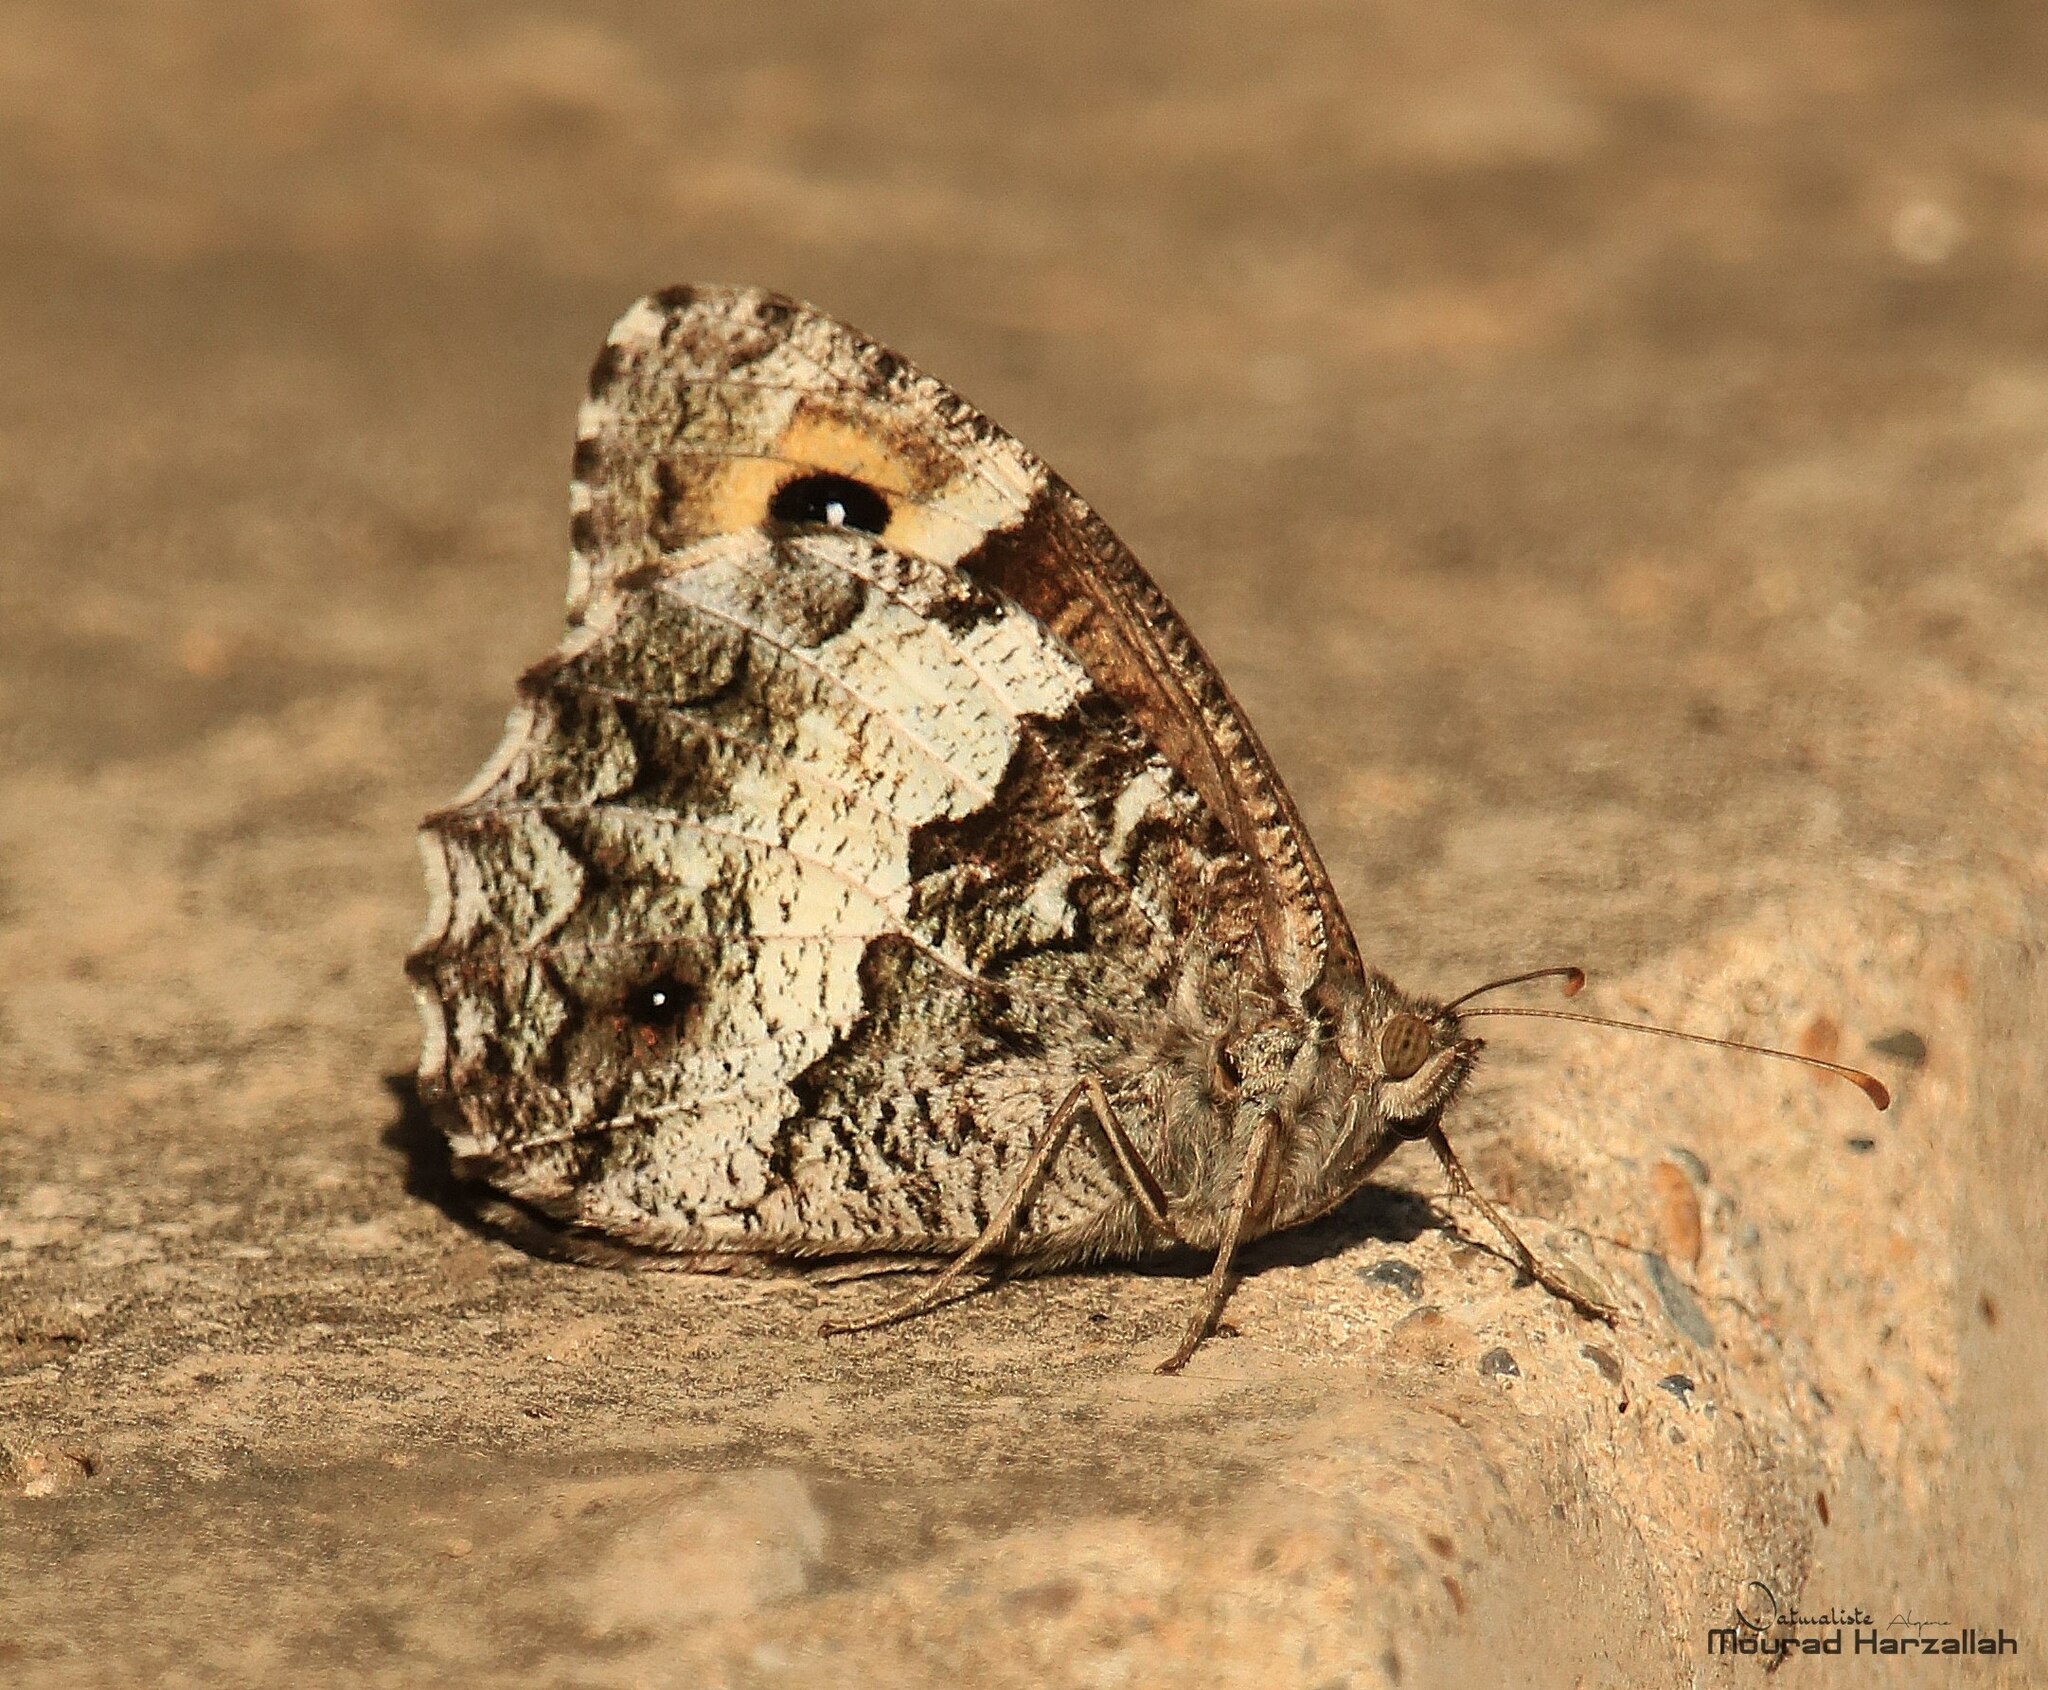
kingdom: Animalia
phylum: Arthropoda
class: Insecta
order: Lepidoptera
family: Nymphalidae
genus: Hipparchia
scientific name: Hipparchia ellena
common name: Algerian grayling
